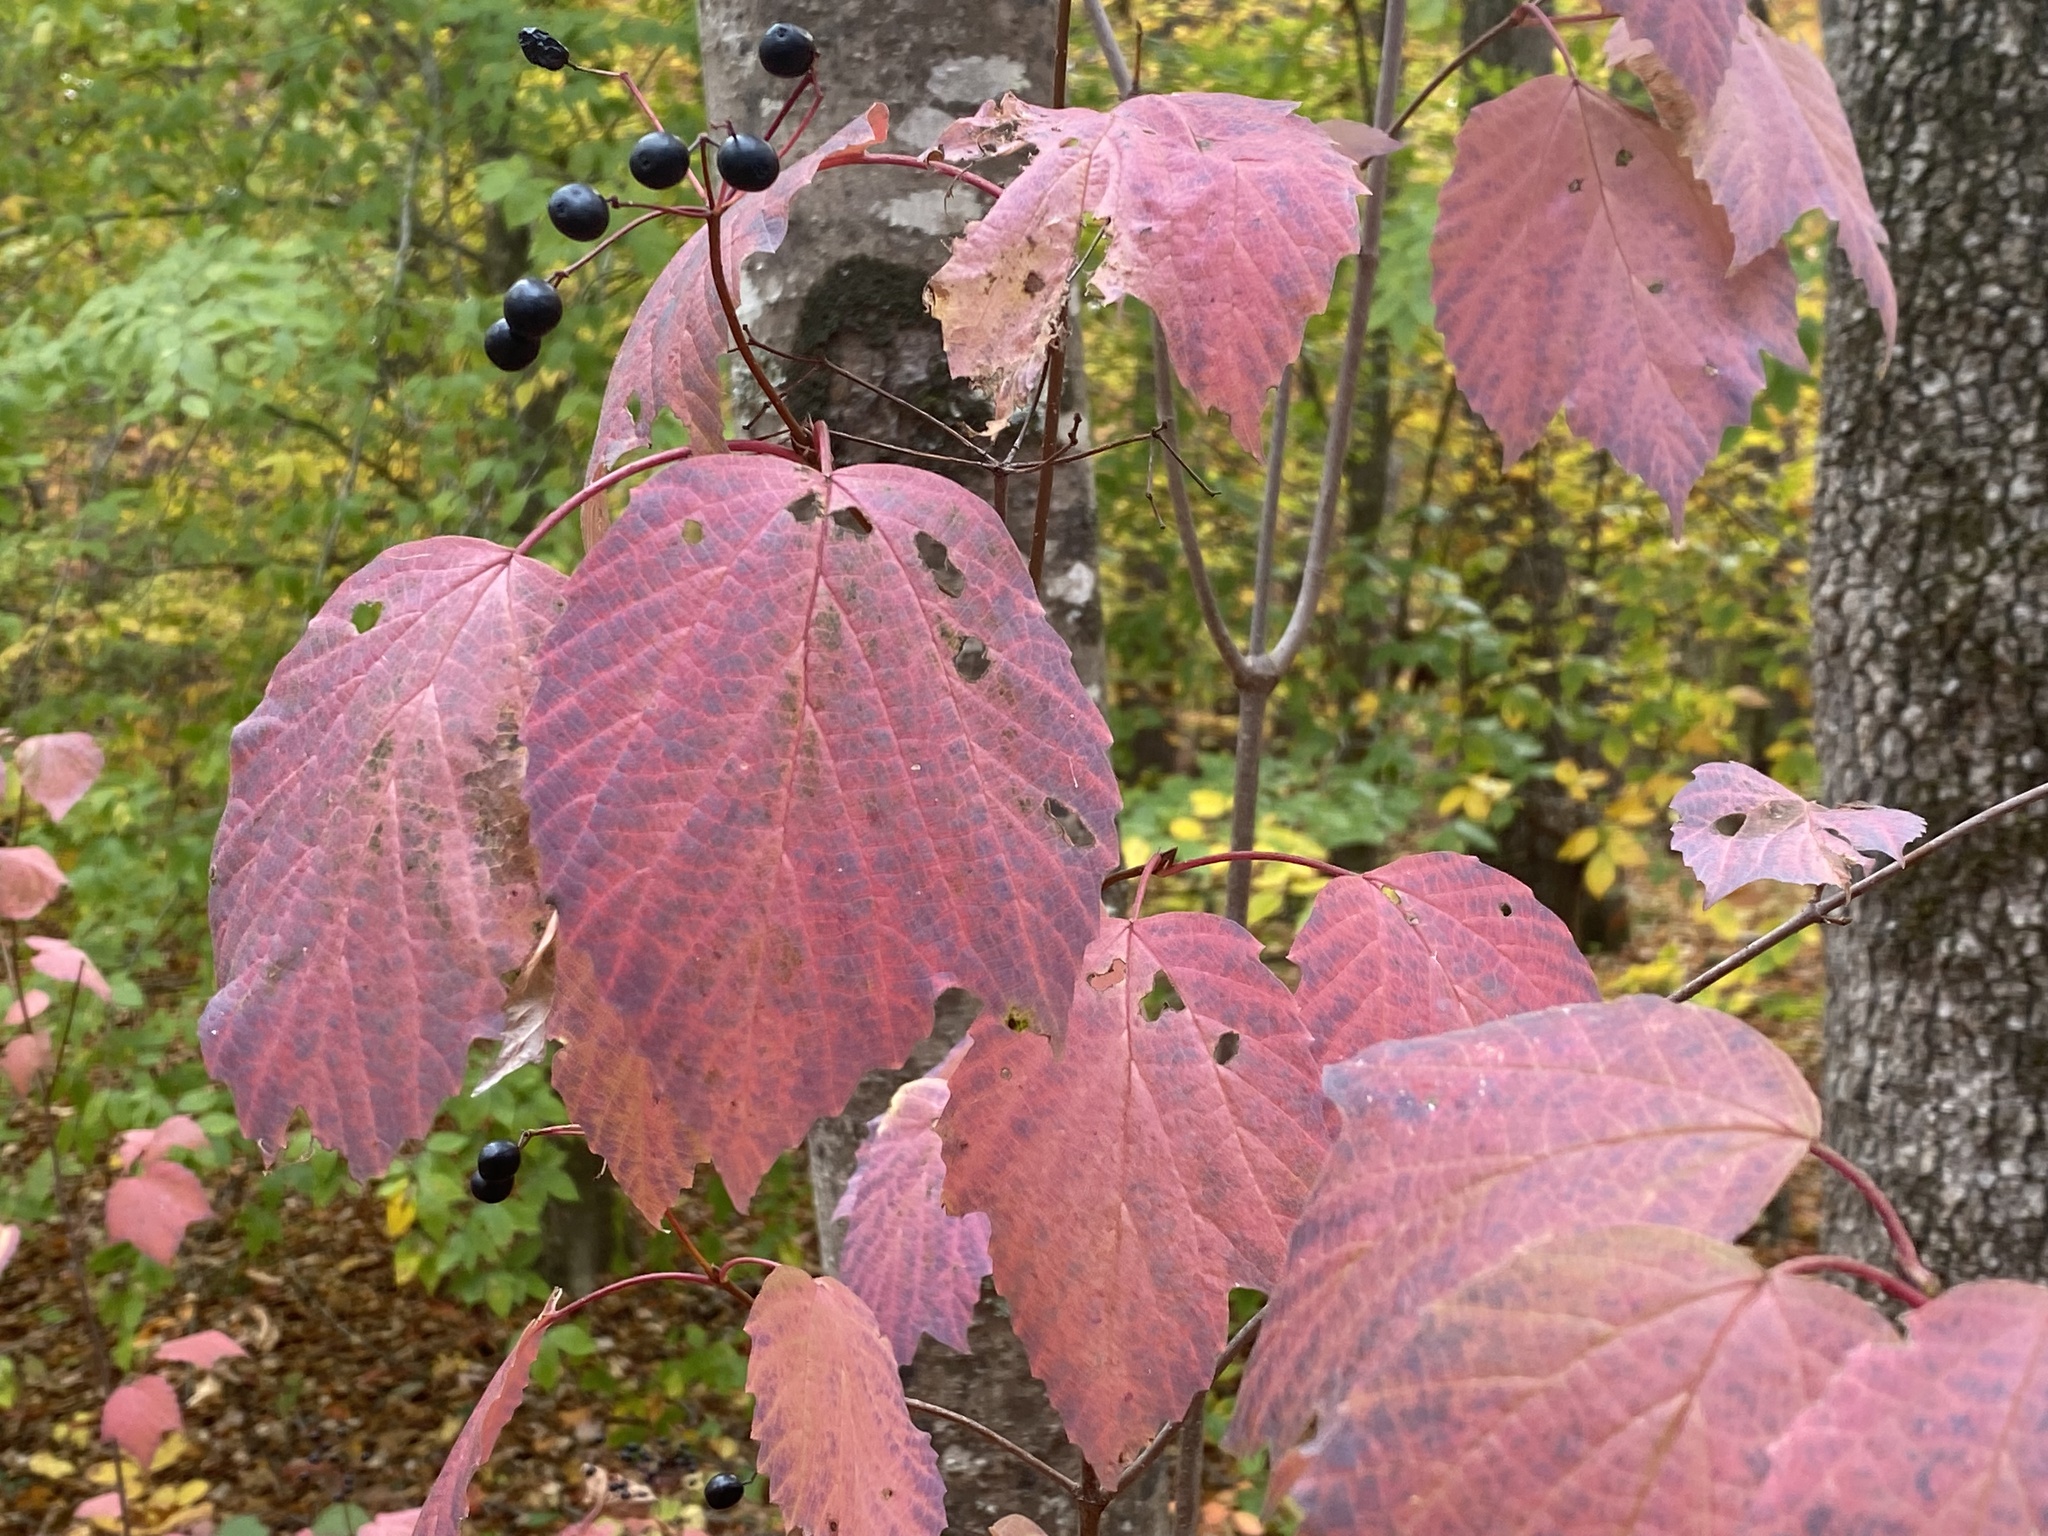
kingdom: Plantae
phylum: Tracheophyta
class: Magnoliopsida
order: Dipsacales
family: Viburnaceae
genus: Viburnum
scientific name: Viburnum acerifolium
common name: Dockmackie
